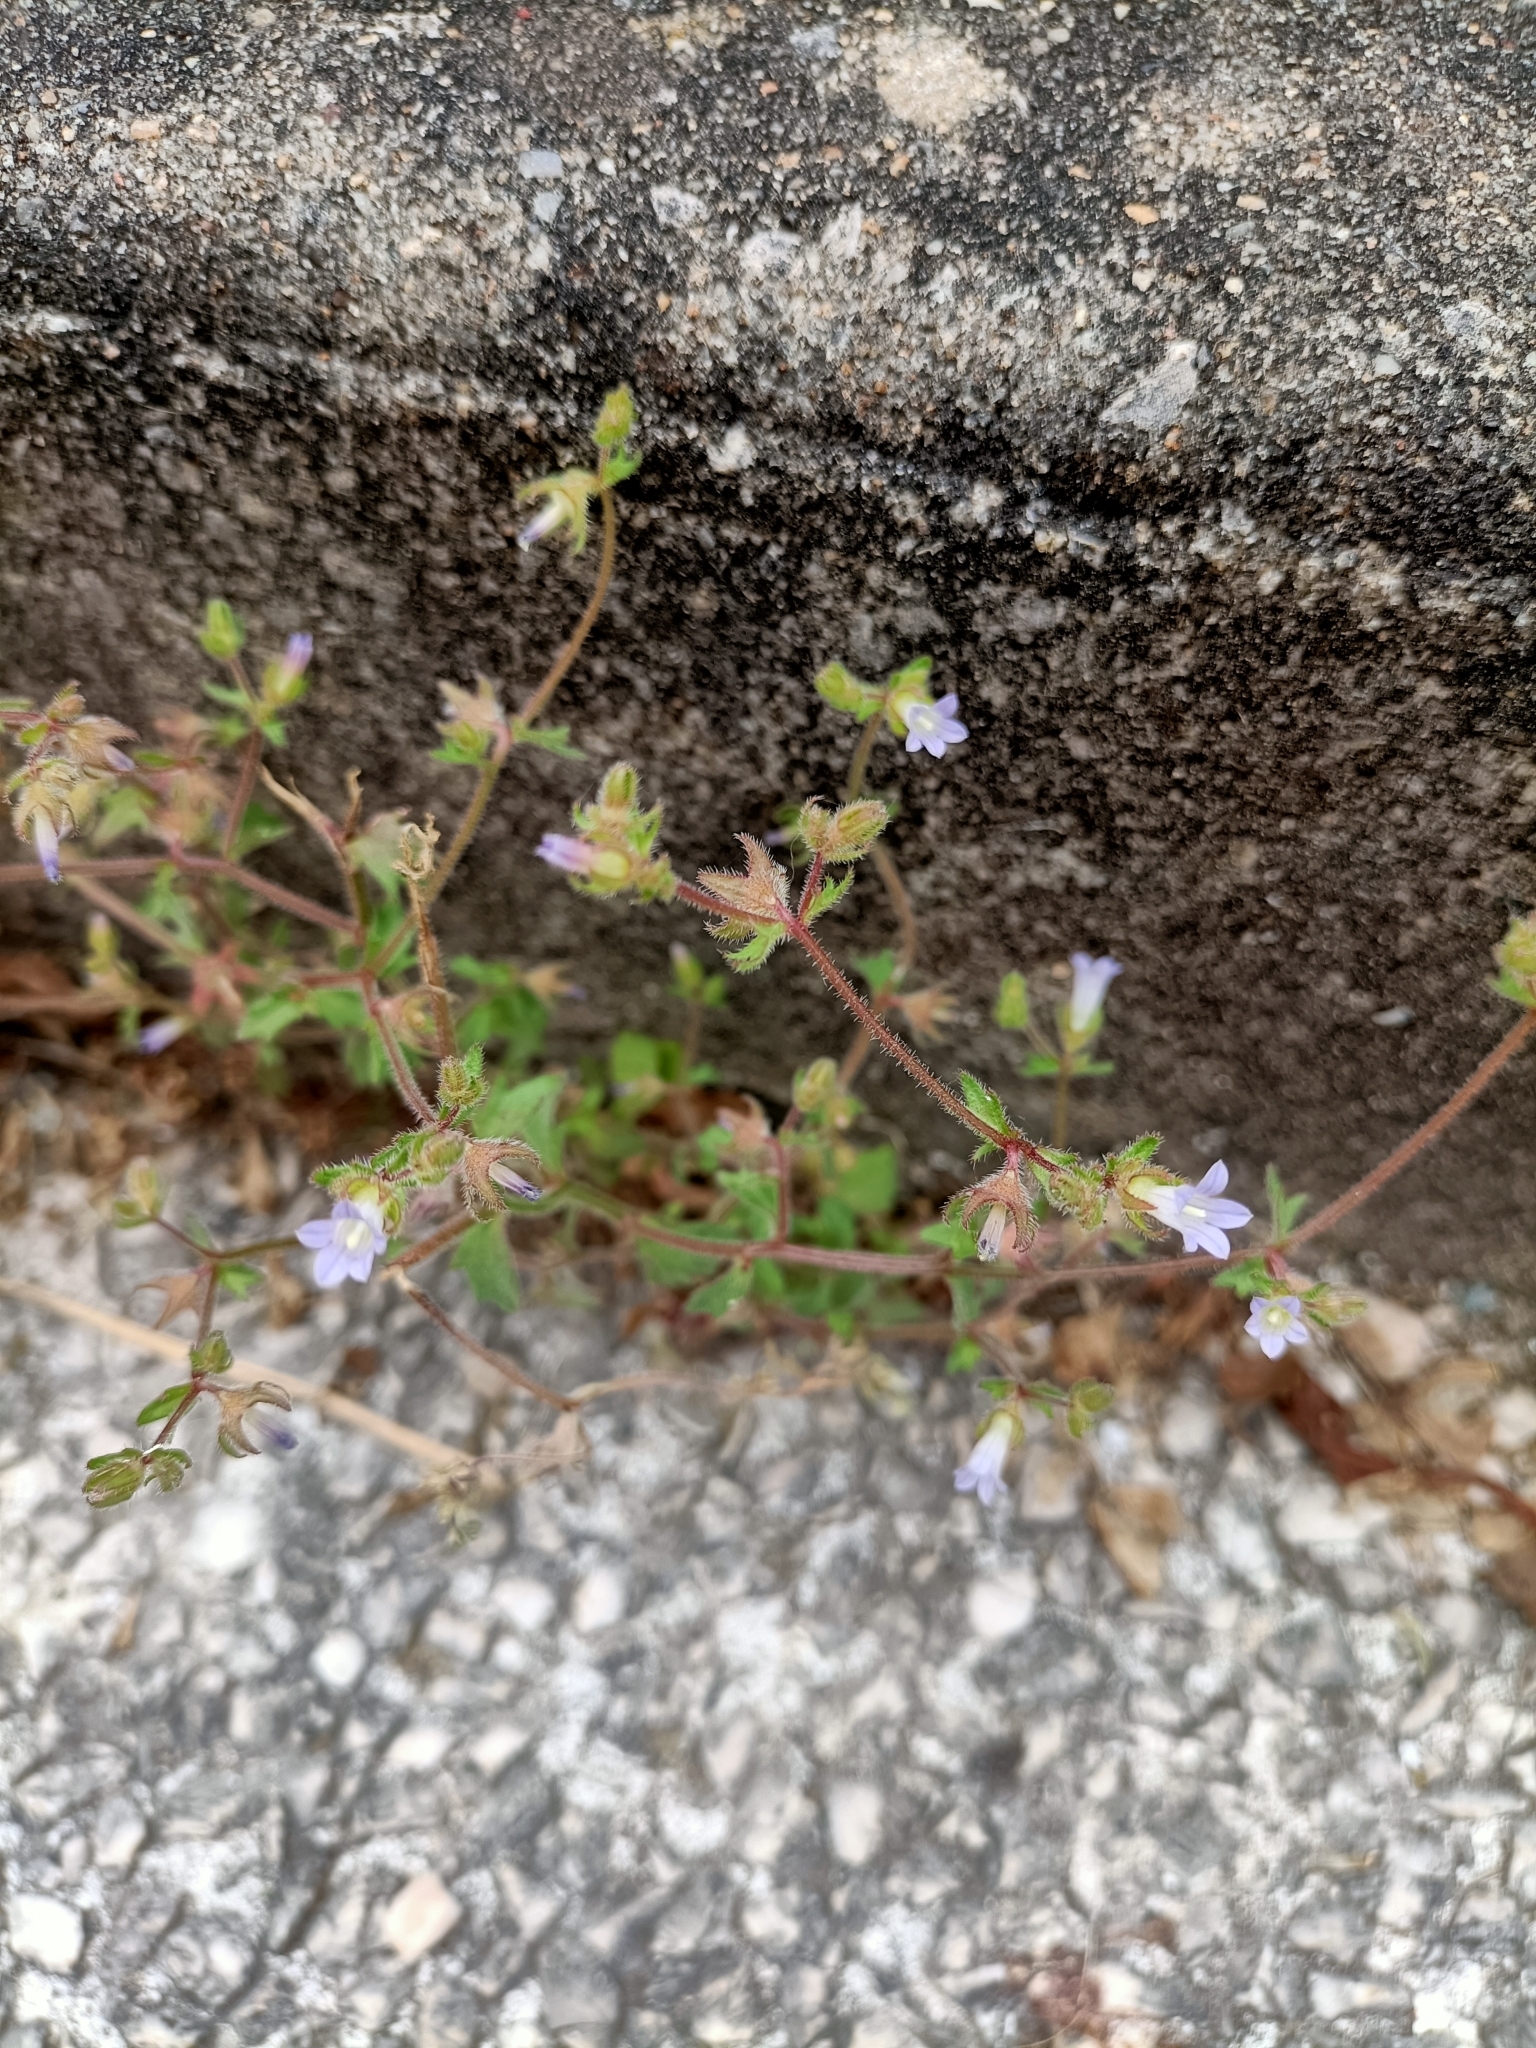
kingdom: Plantae
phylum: Tracheophyta
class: Magnoliopsida
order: Asterales
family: Campanulaceae
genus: Campanula
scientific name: Campanula erinus
